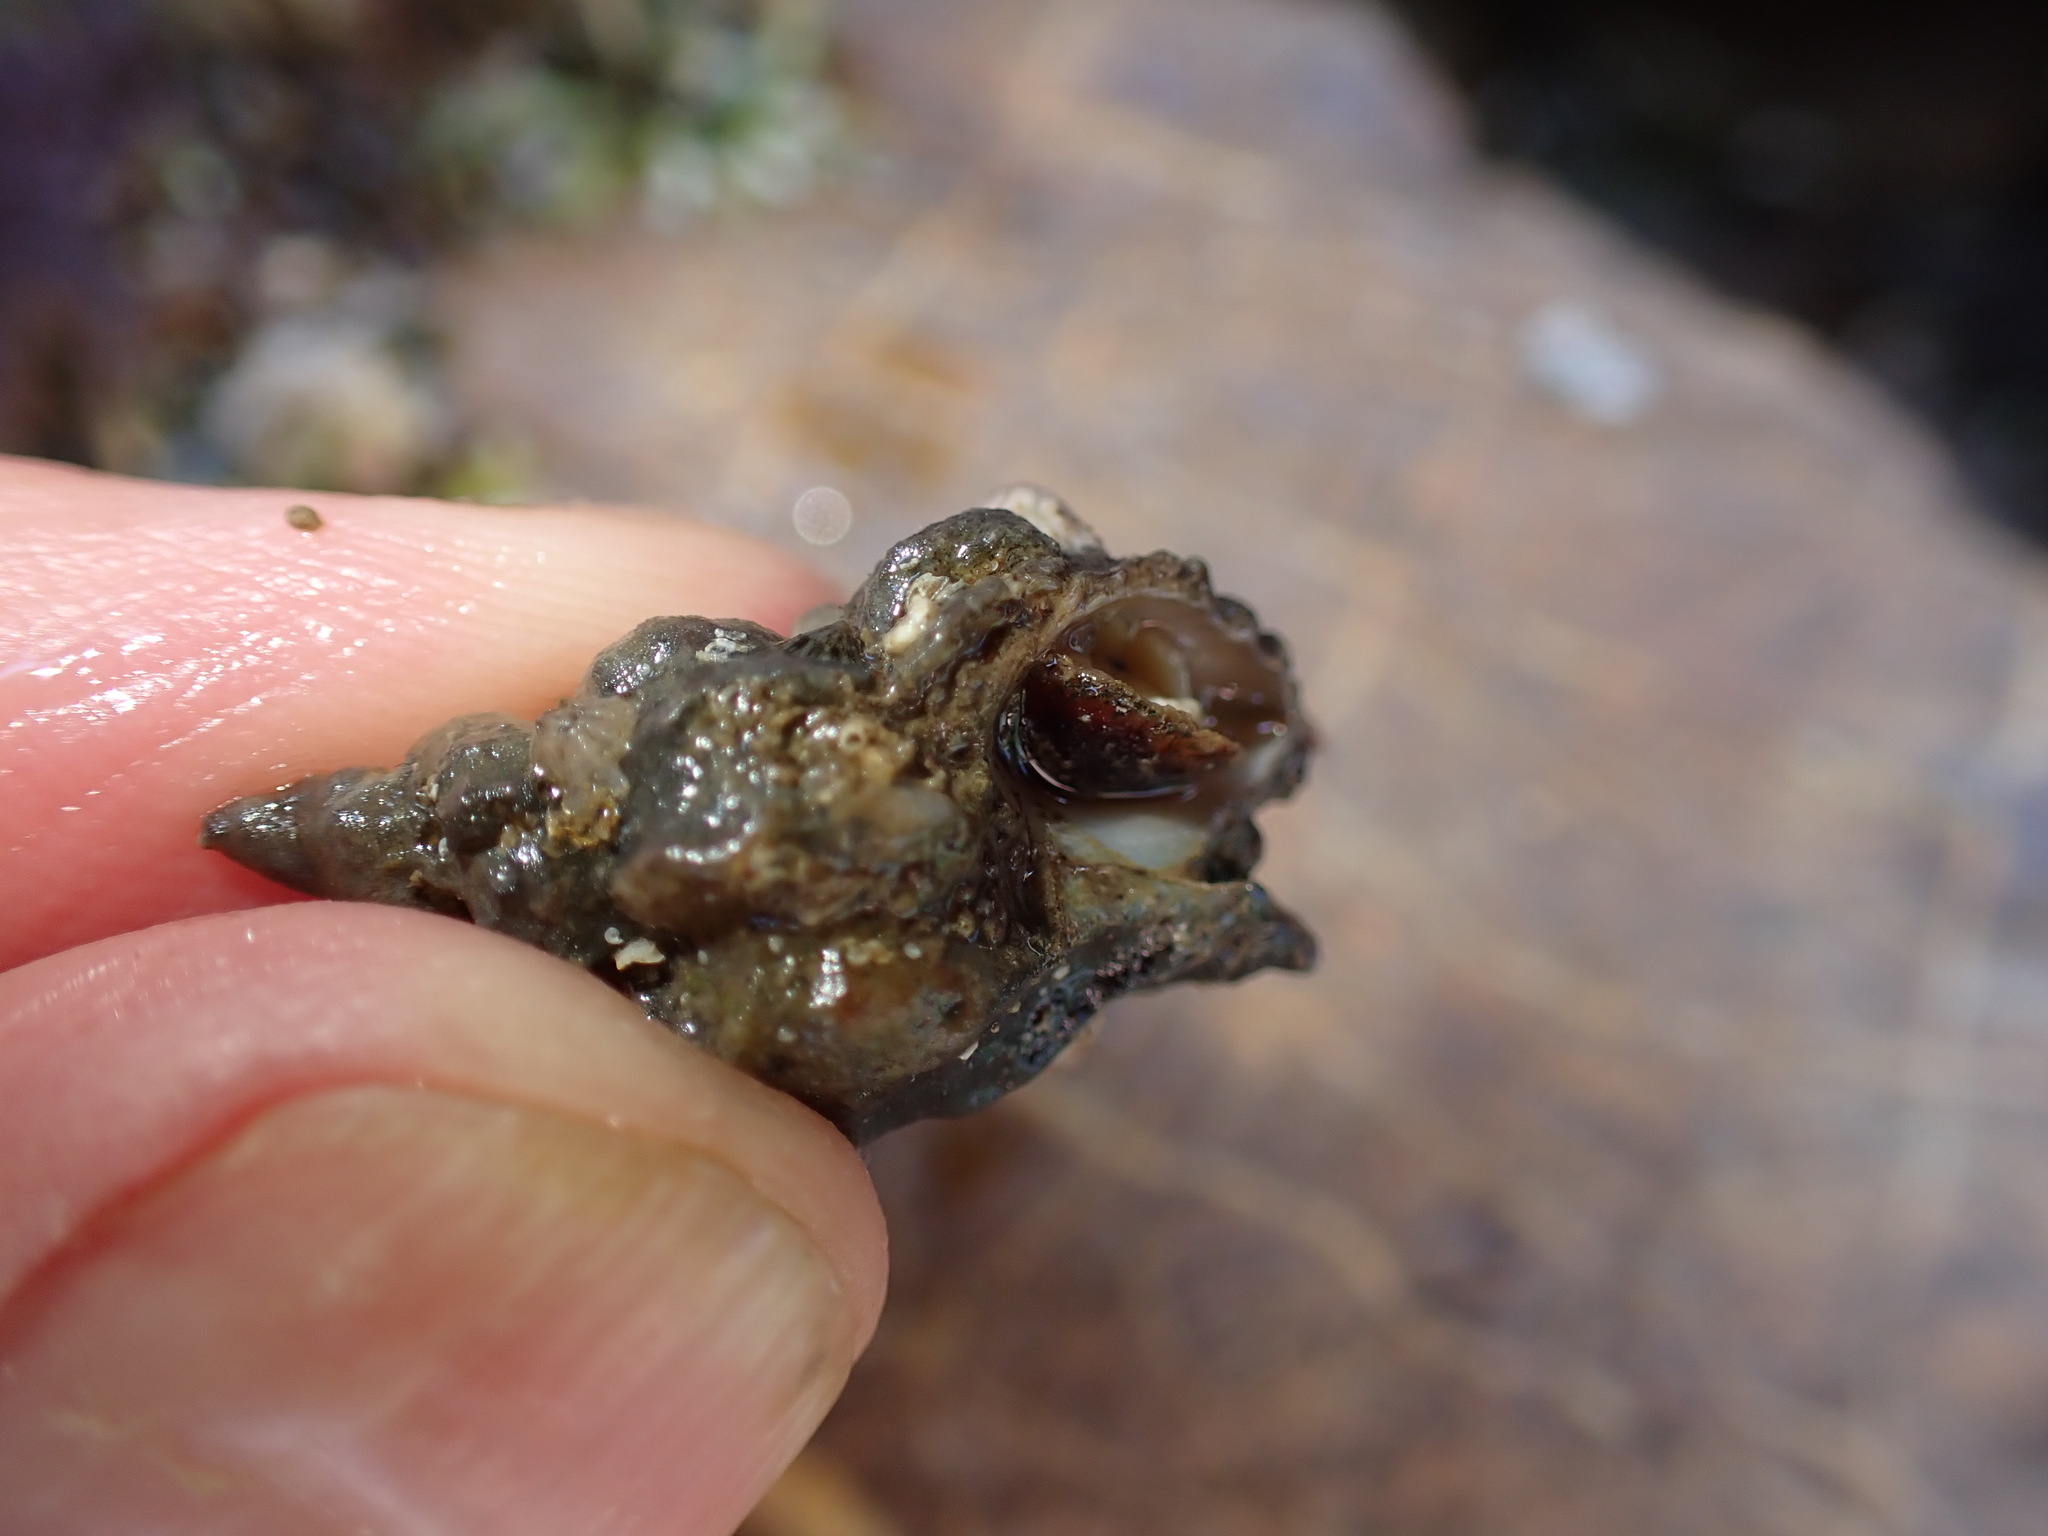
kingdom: Animalia
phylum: Mollusca
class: Gastropoda
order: Neogastropoda
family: Muricidae
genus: Ocenebra
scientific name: Ocenebra erinaceus
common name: European sting winkle
